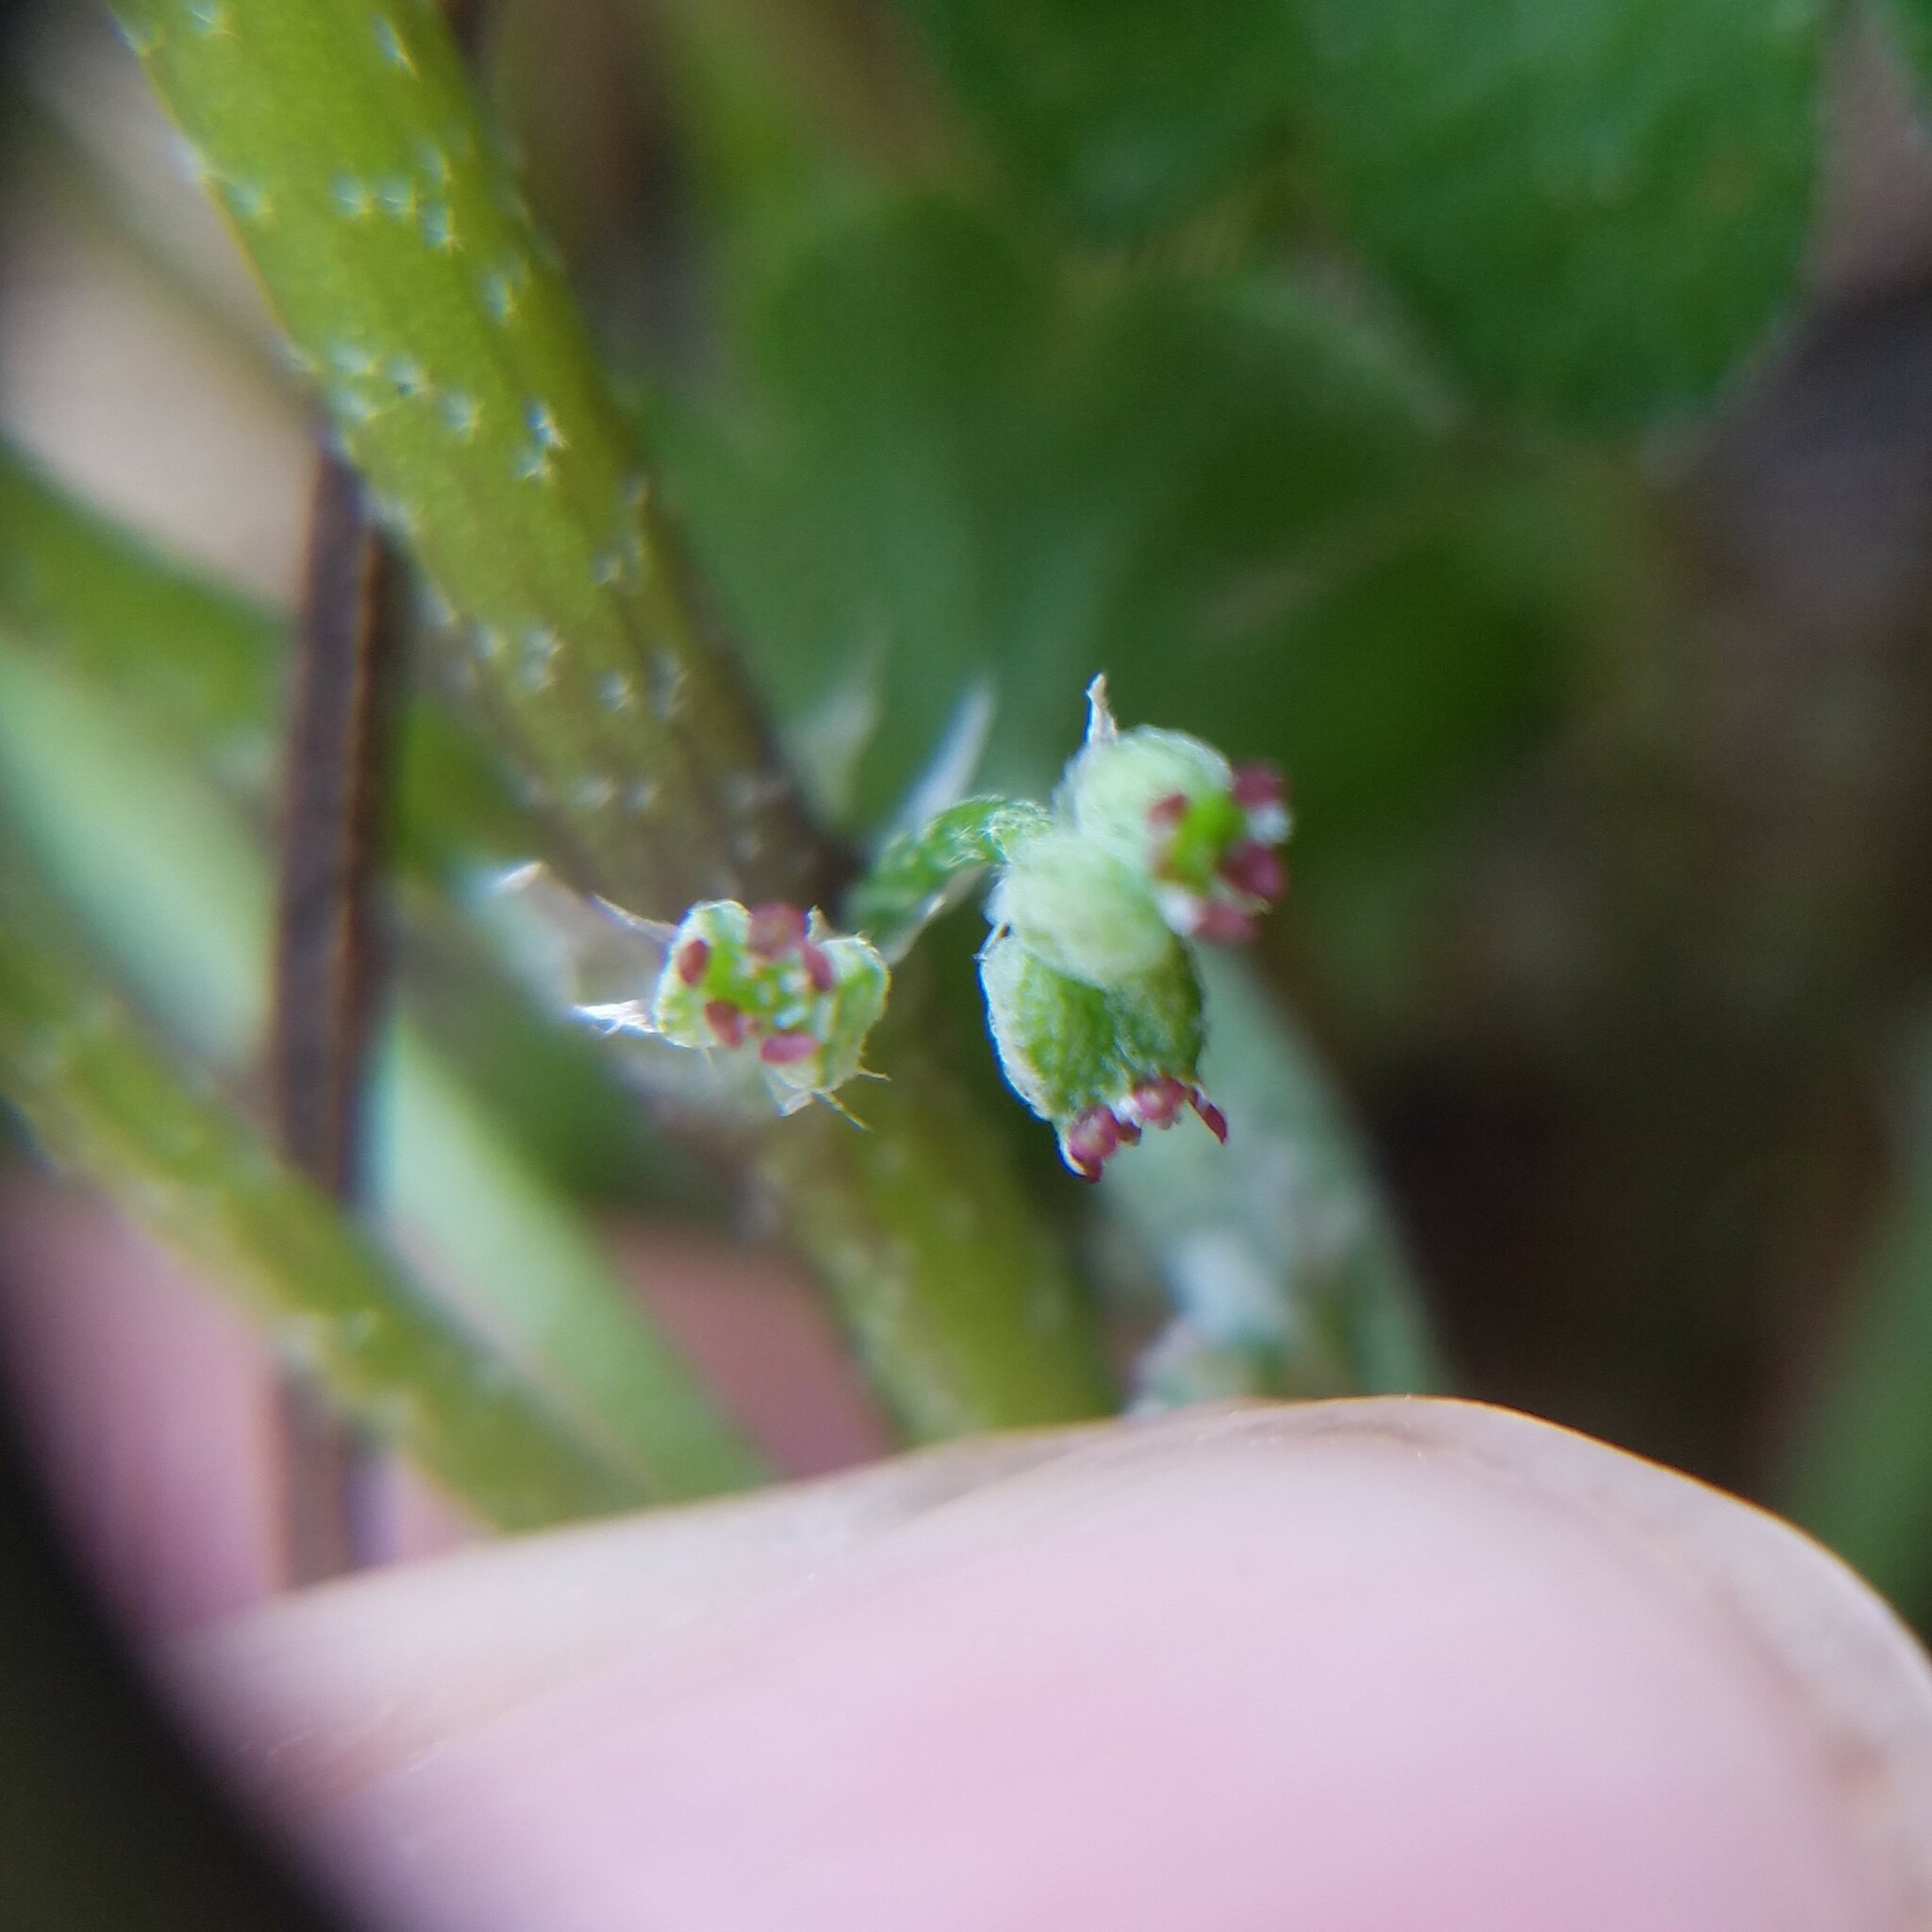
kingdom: Plantae
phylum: Tracheophyta
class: Magnoliopsida
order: Apiales
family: Apiaceae
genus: Bowlesia
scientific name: Bowlesia incana
